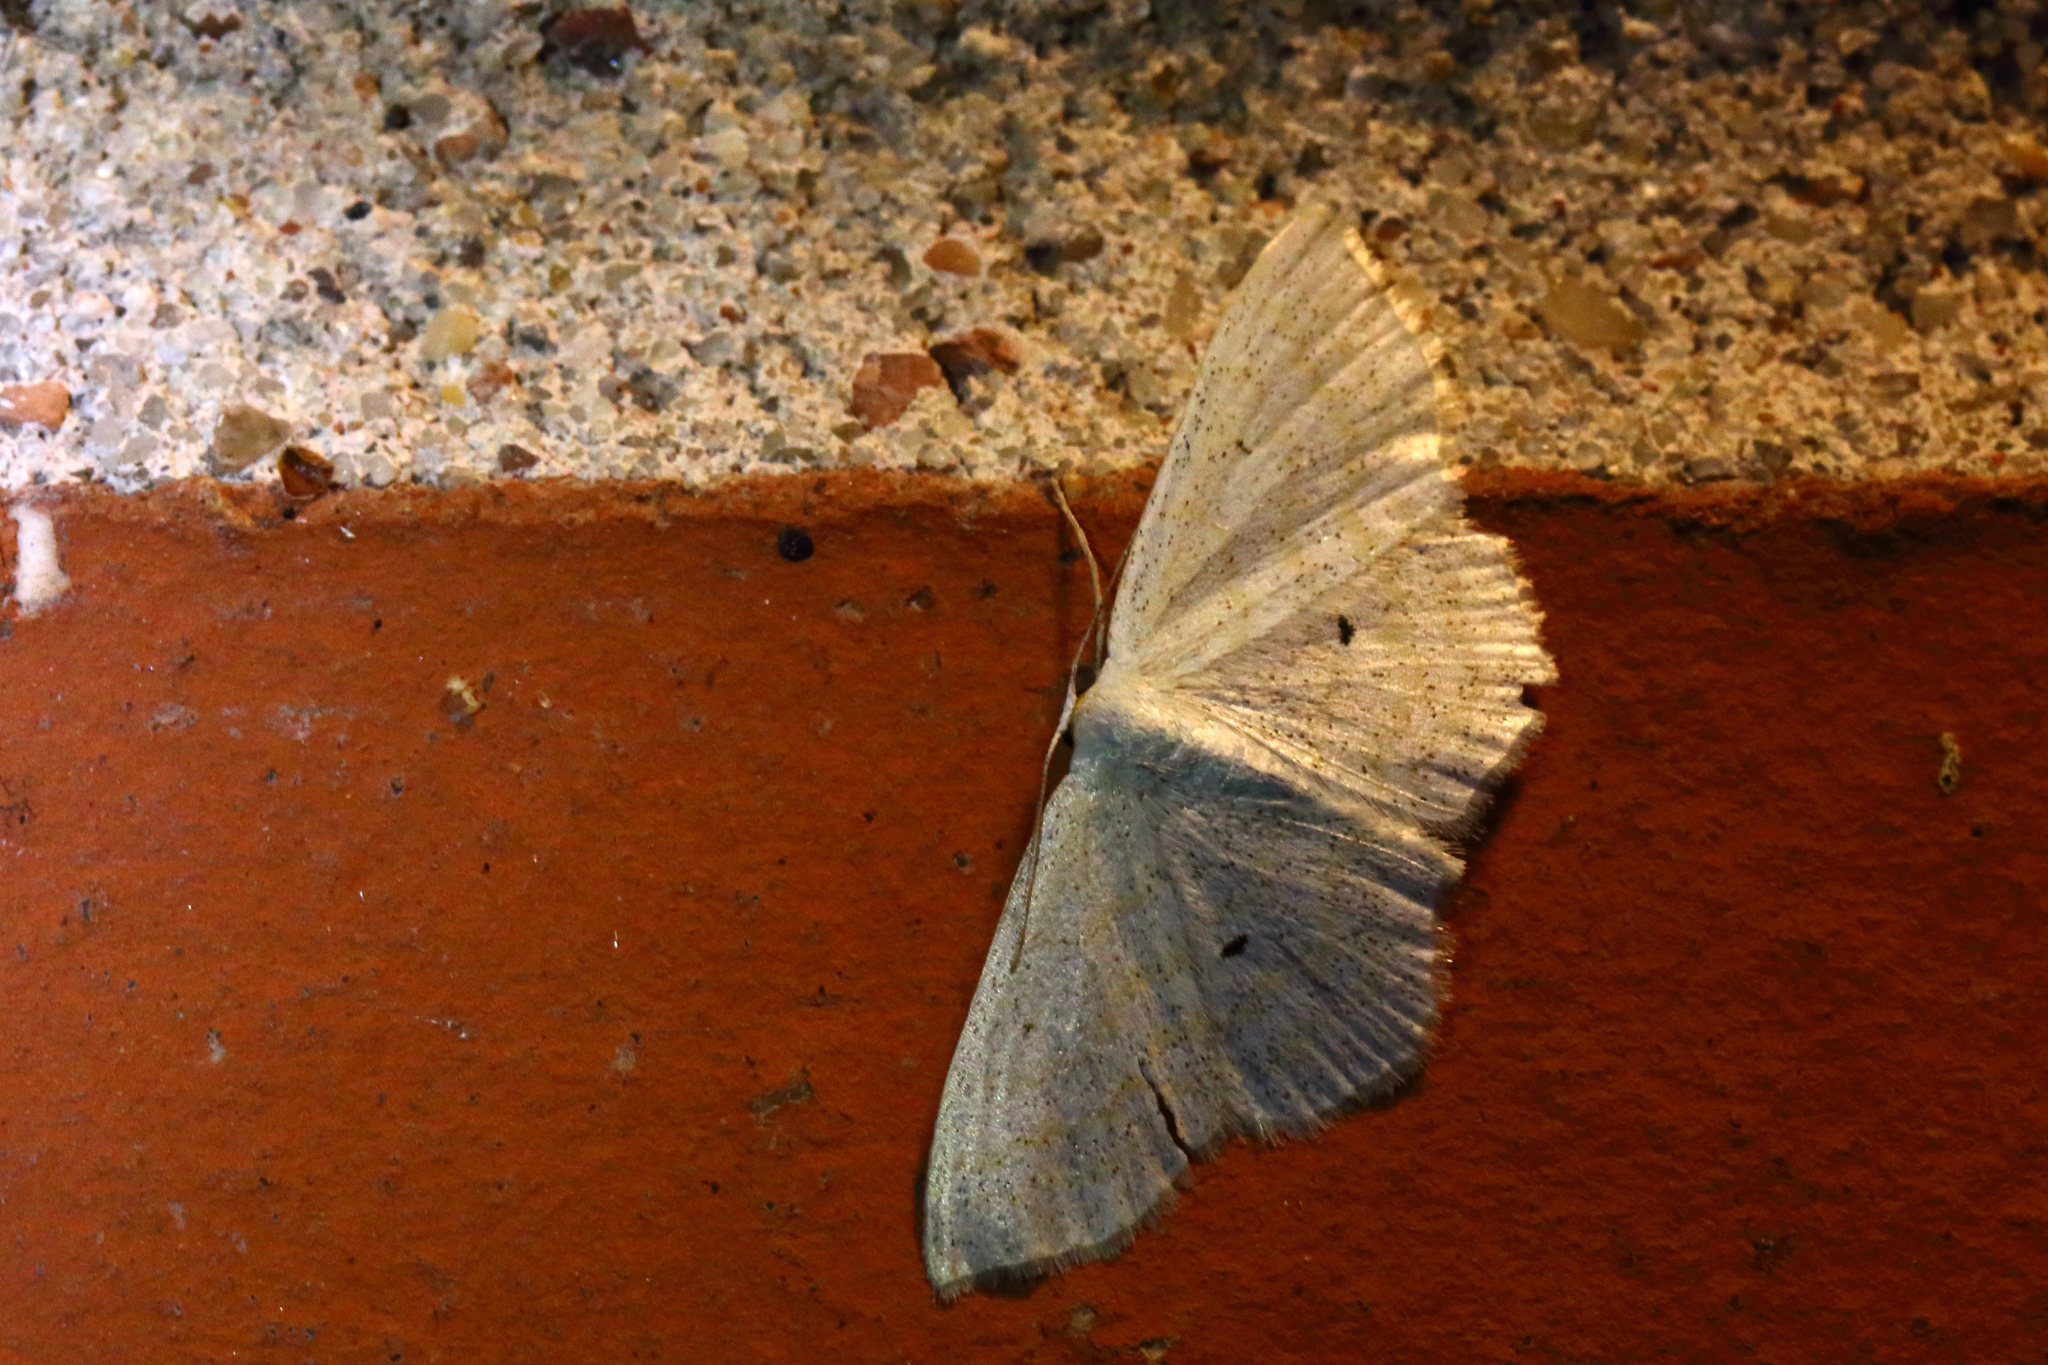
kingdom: Animalia
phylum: Arthropoda
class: Insecta
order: Lepidoptera
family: Geometridae
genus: Scopula
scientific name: Scopula immutata
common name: Lesser cream wave
